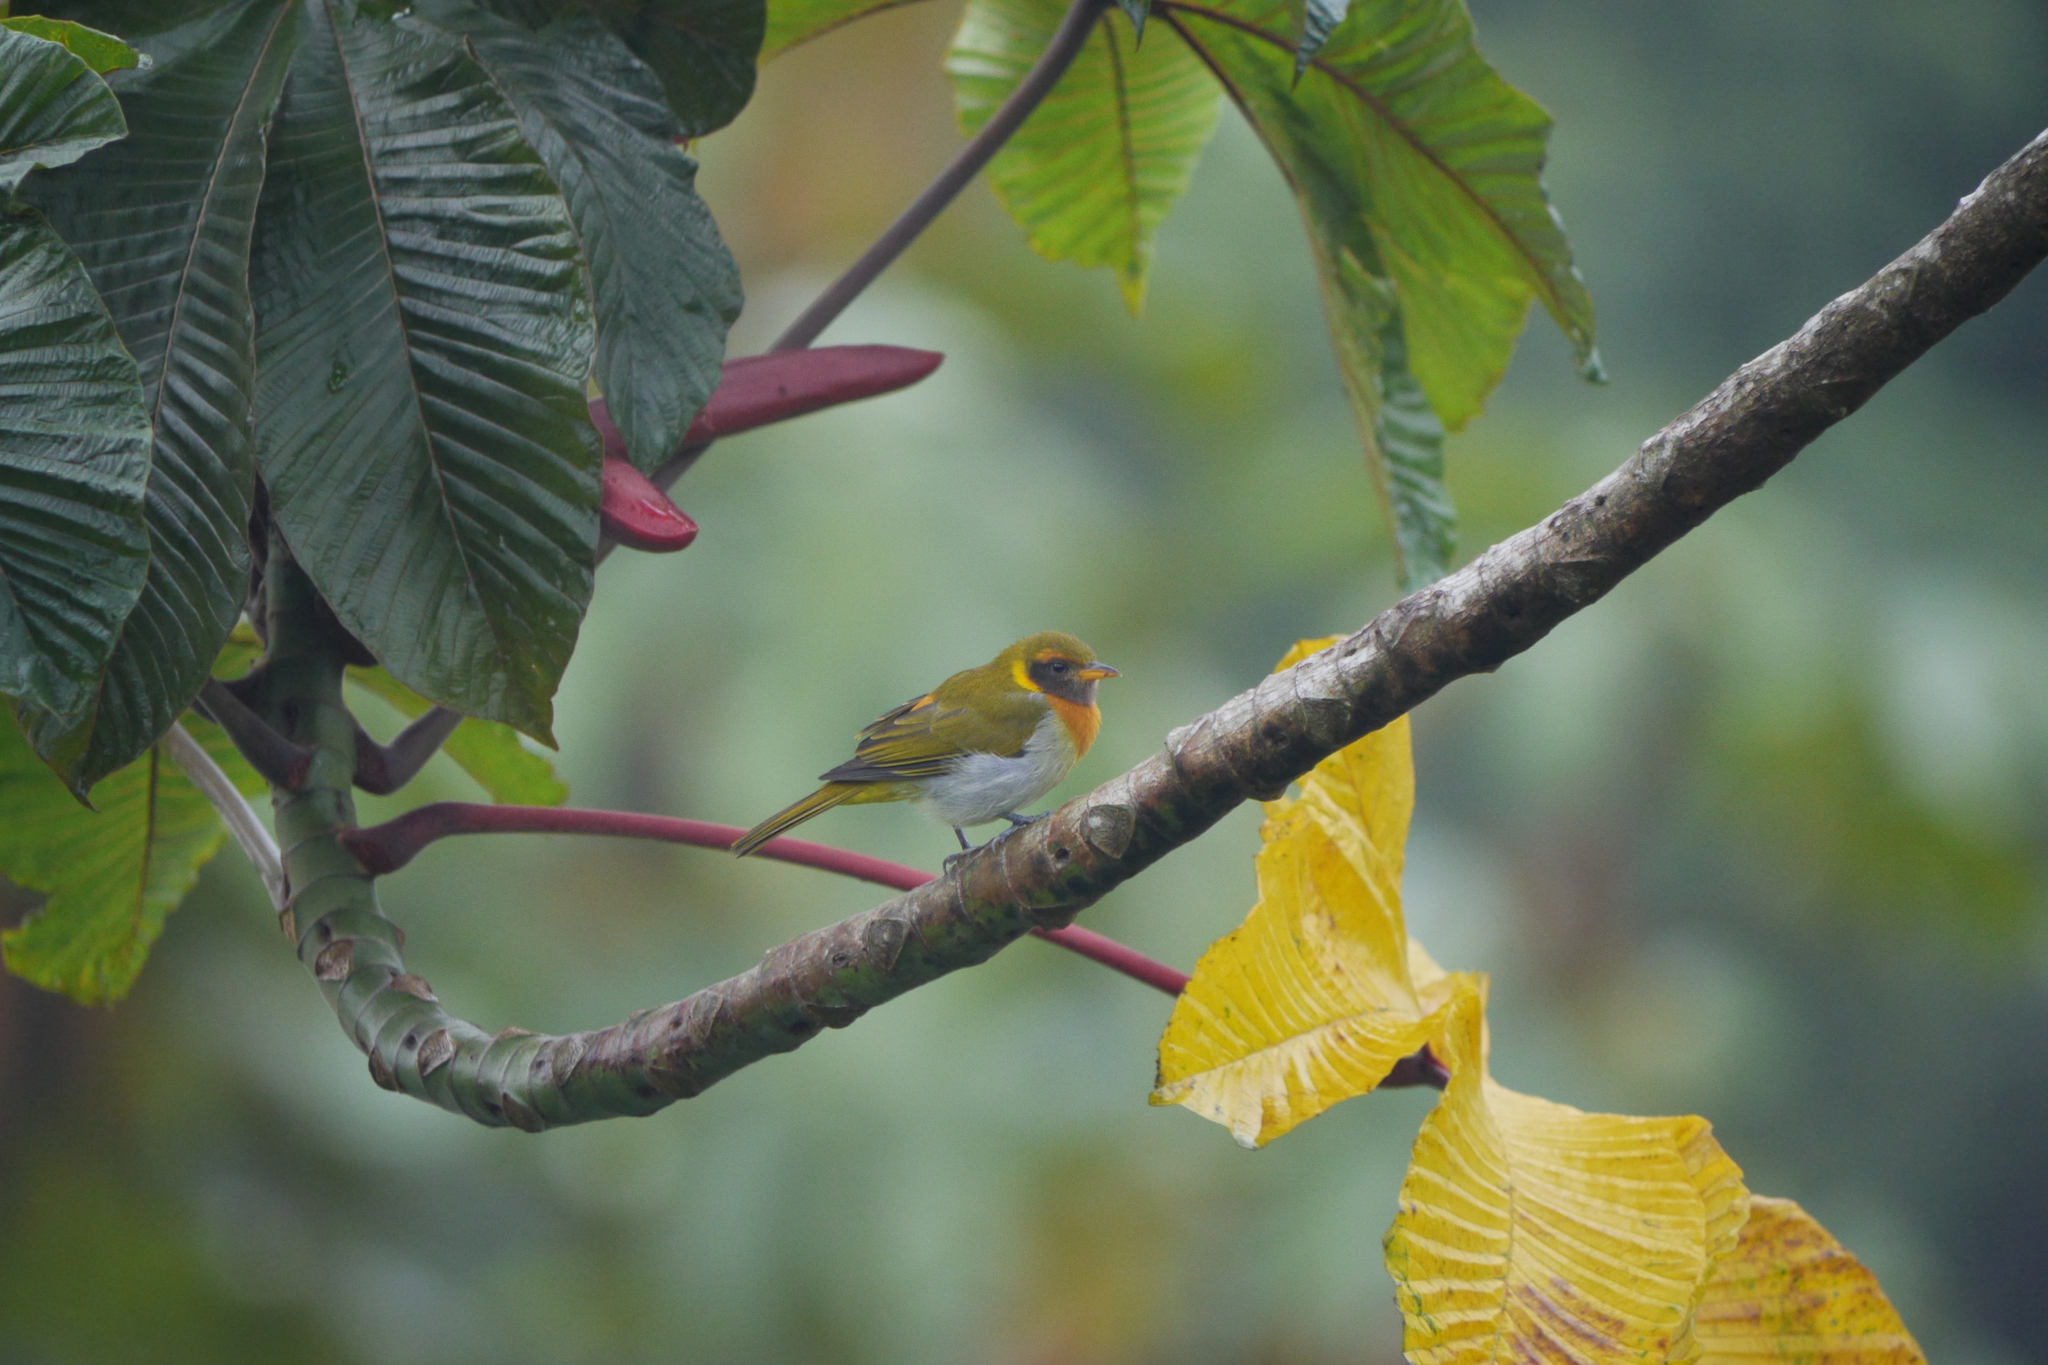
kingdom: Animalia
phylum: Chordata
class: Aves
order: Passeriformes
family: Thraupidae
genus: Hemithraupis
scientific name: Hemithraupis guira
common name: Guira tanager
